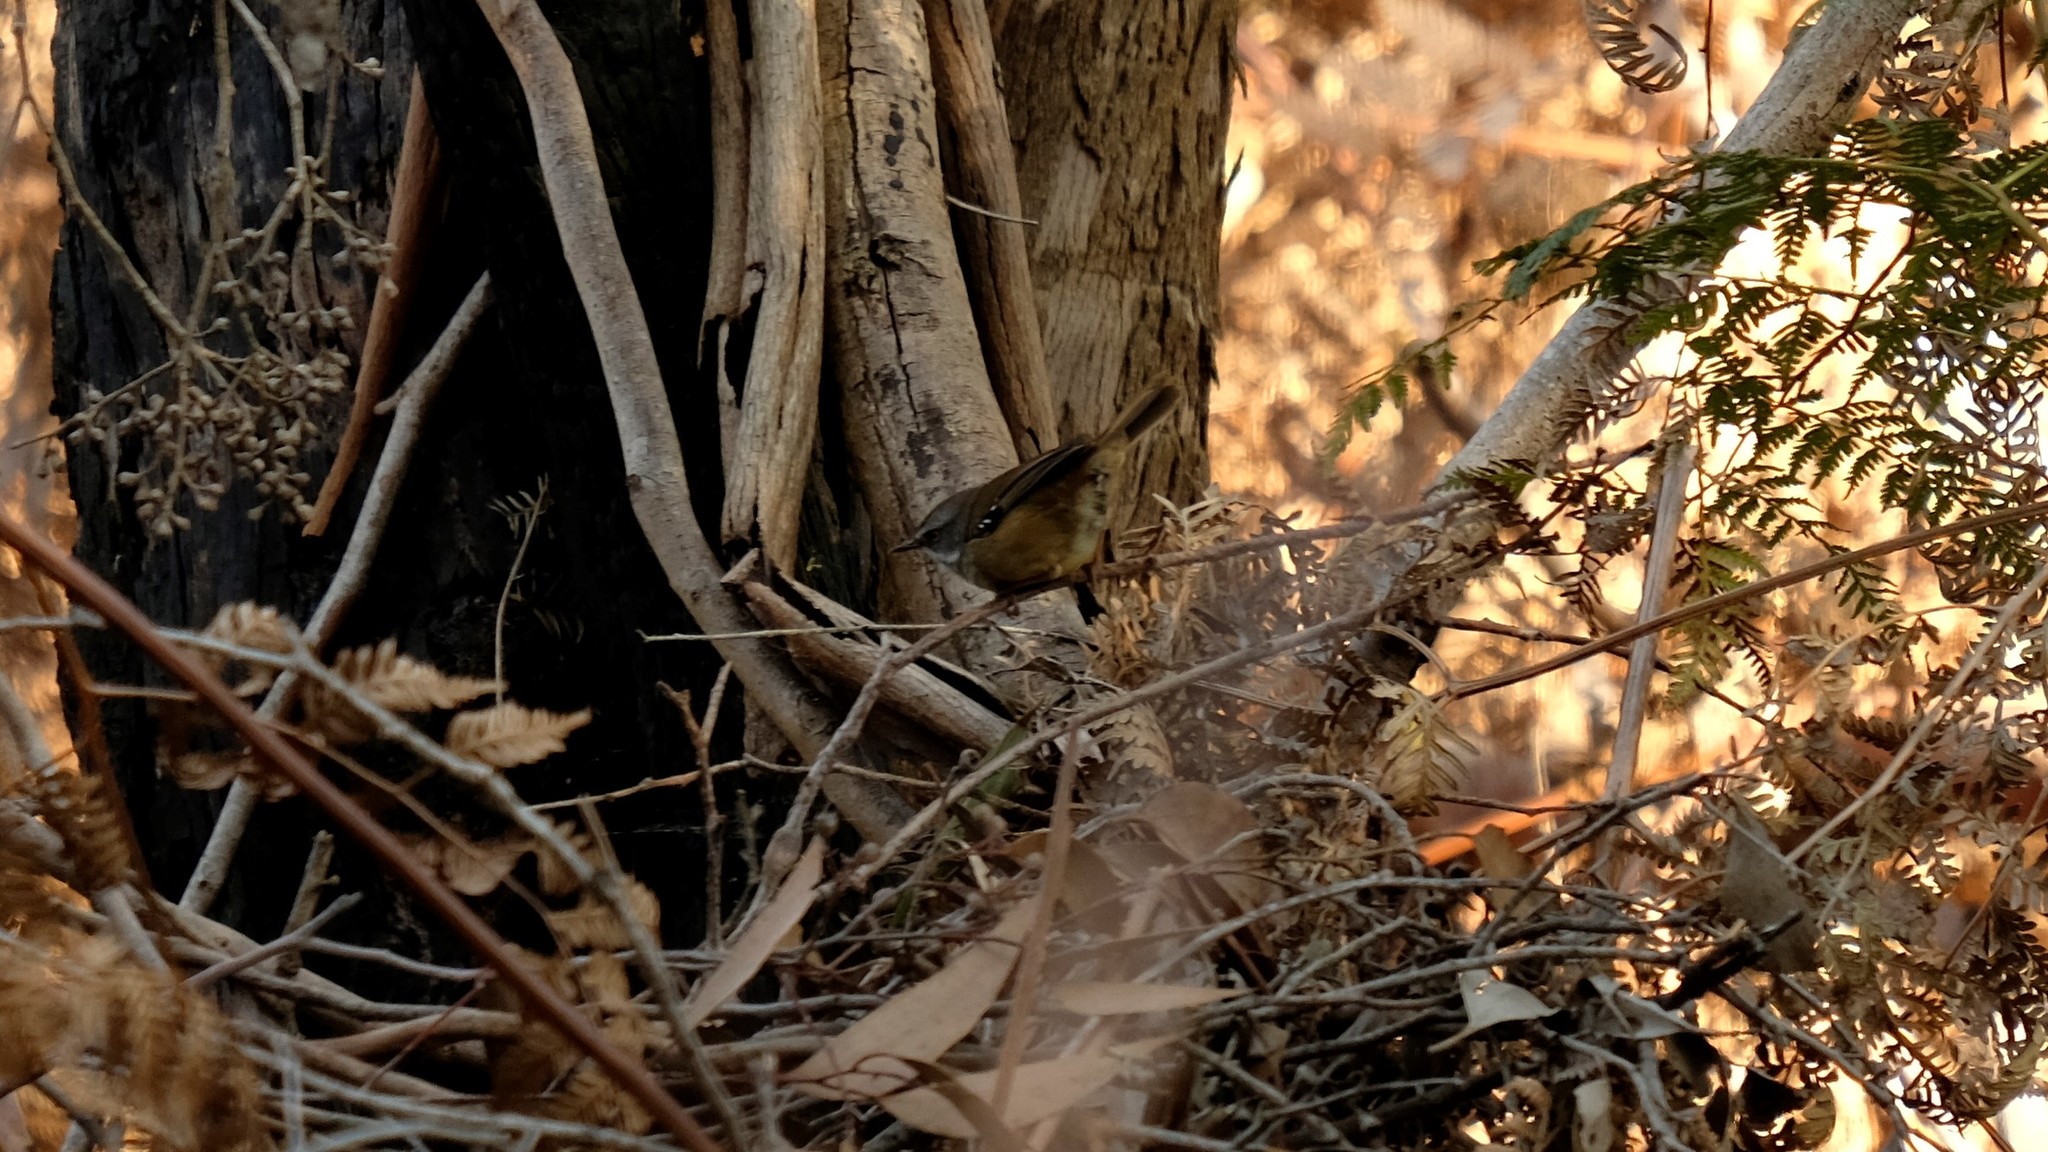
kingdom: Animalia
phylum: Chordata
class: Aves
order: Passeriformes
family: Acanthizidae
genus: Sericornis
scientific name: Sericornis frontalis
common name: White-browed scrubwren
